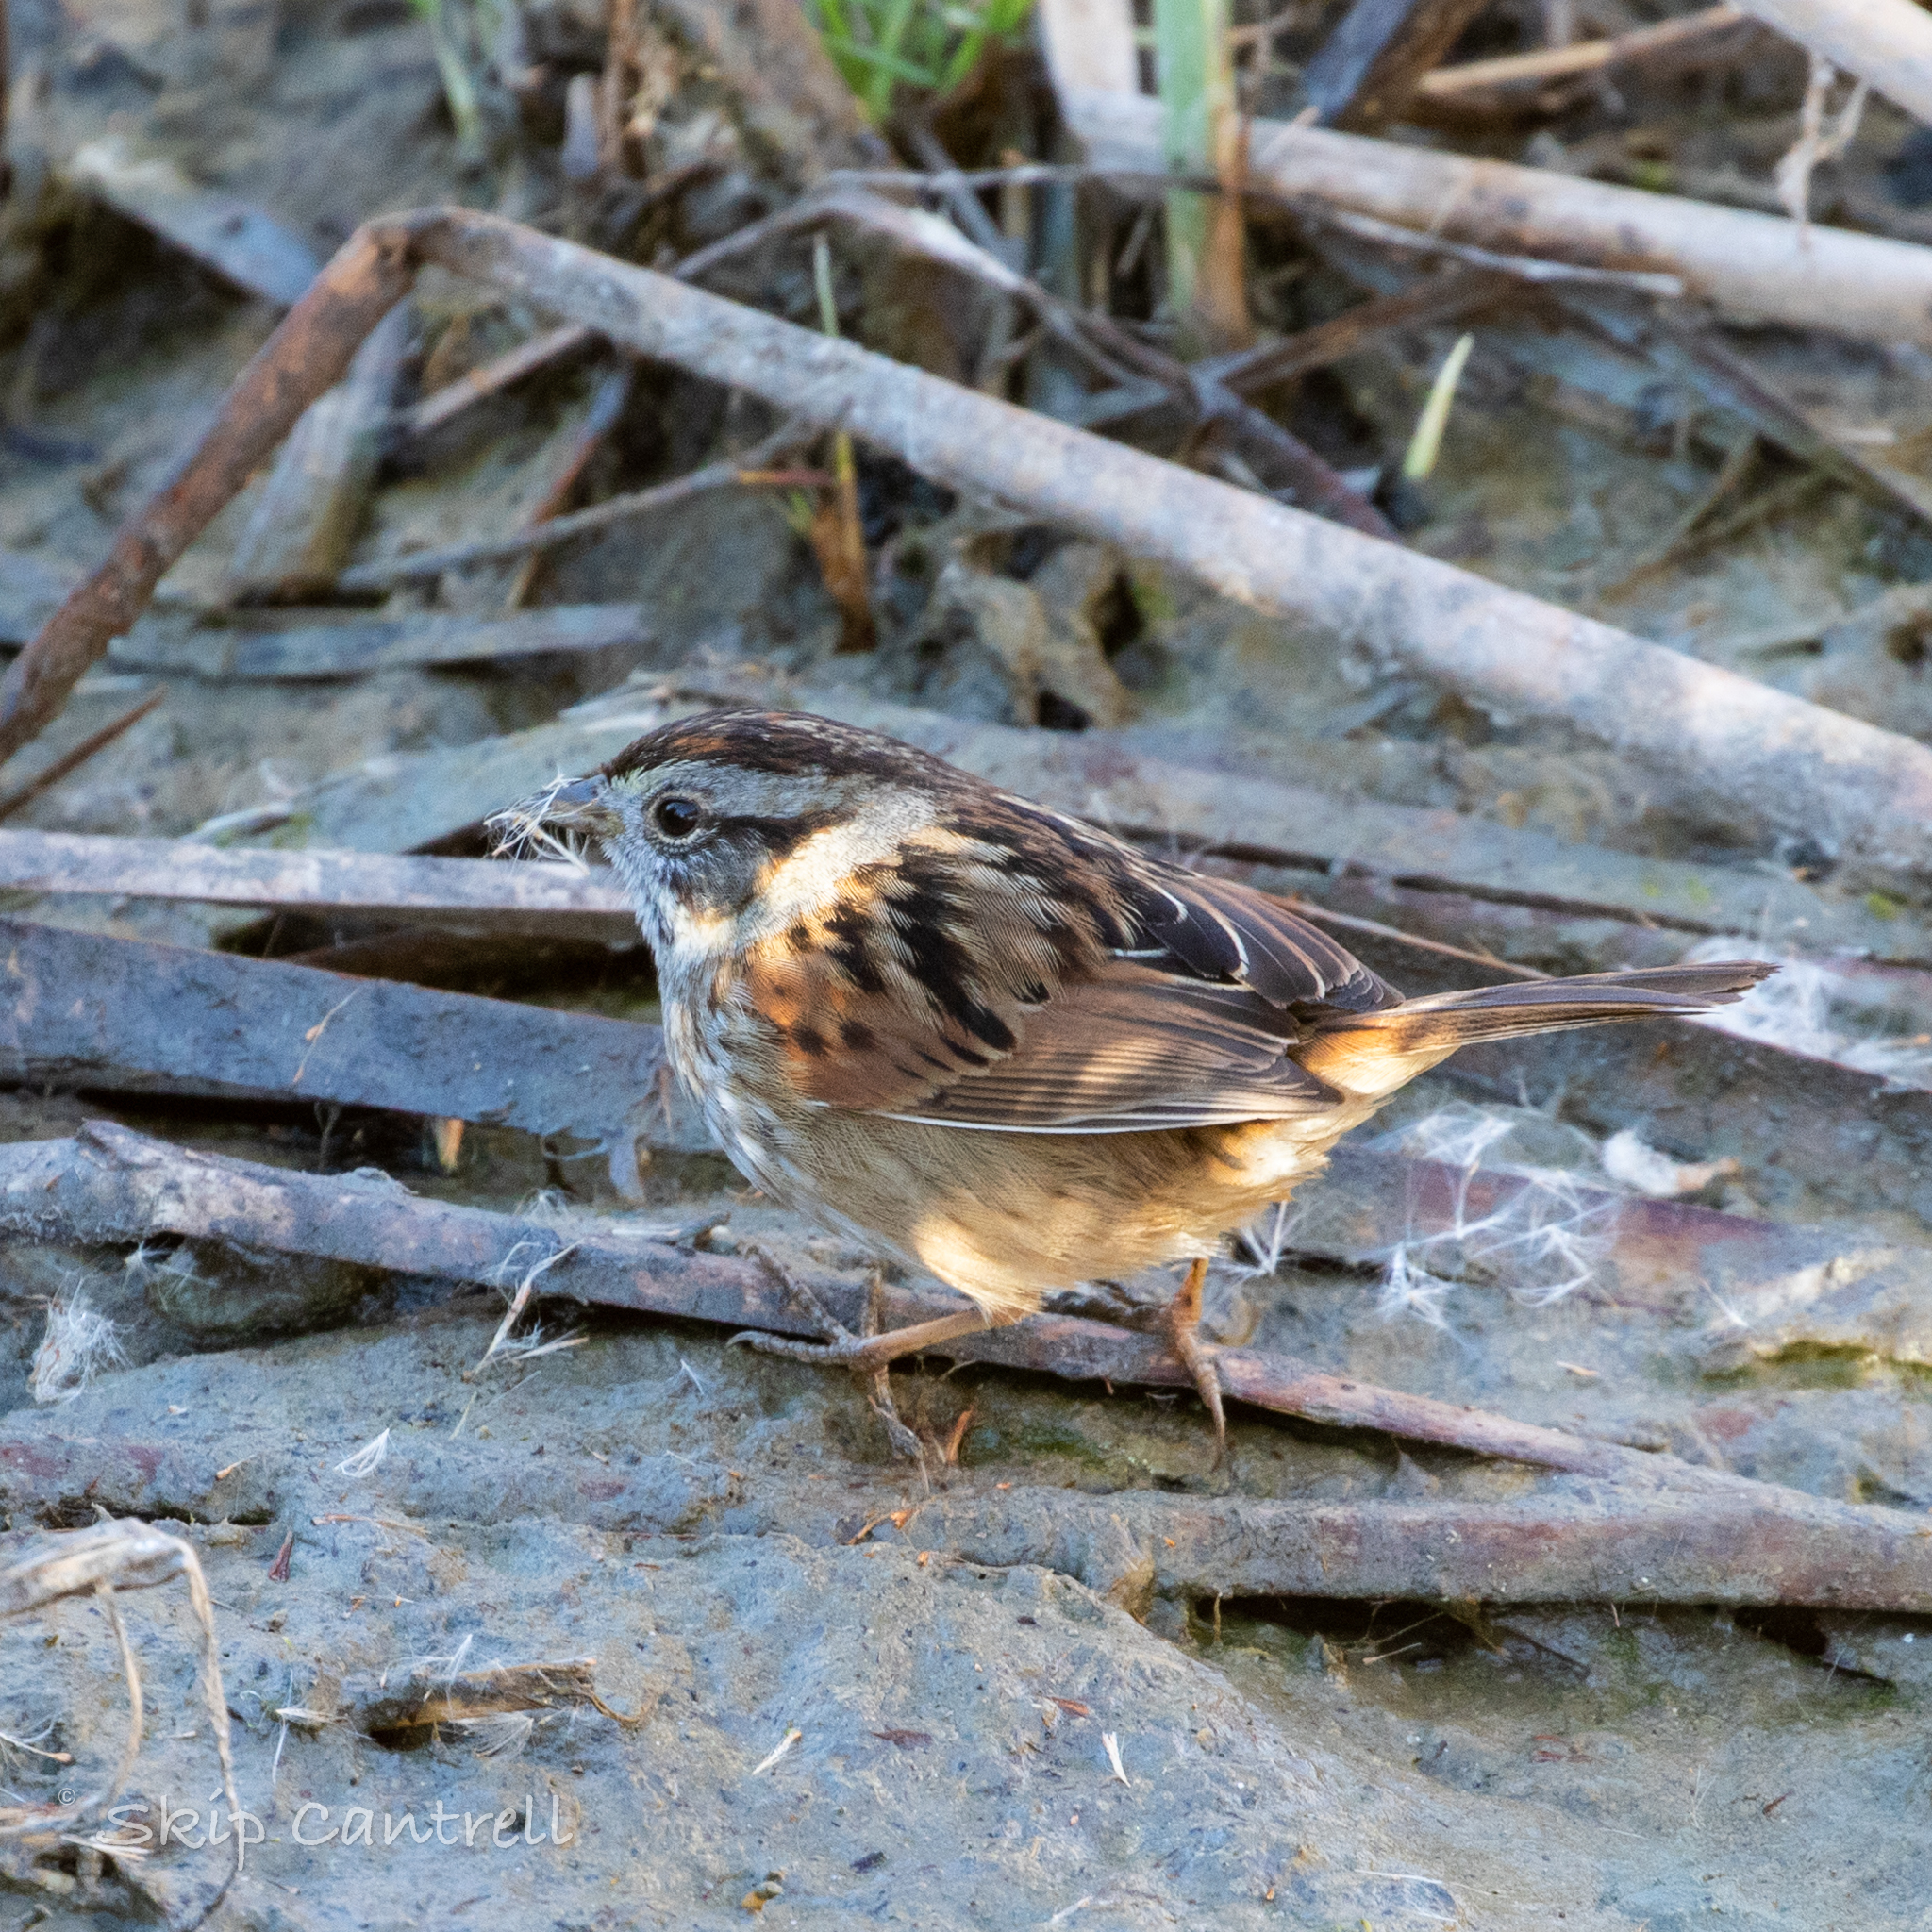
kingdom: Animalia
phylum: Chordata
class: Aves
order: Passeriformes
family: Passerellidae
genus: Melospiza
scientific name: Melospiza georgiana
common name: Swamp sparrow
